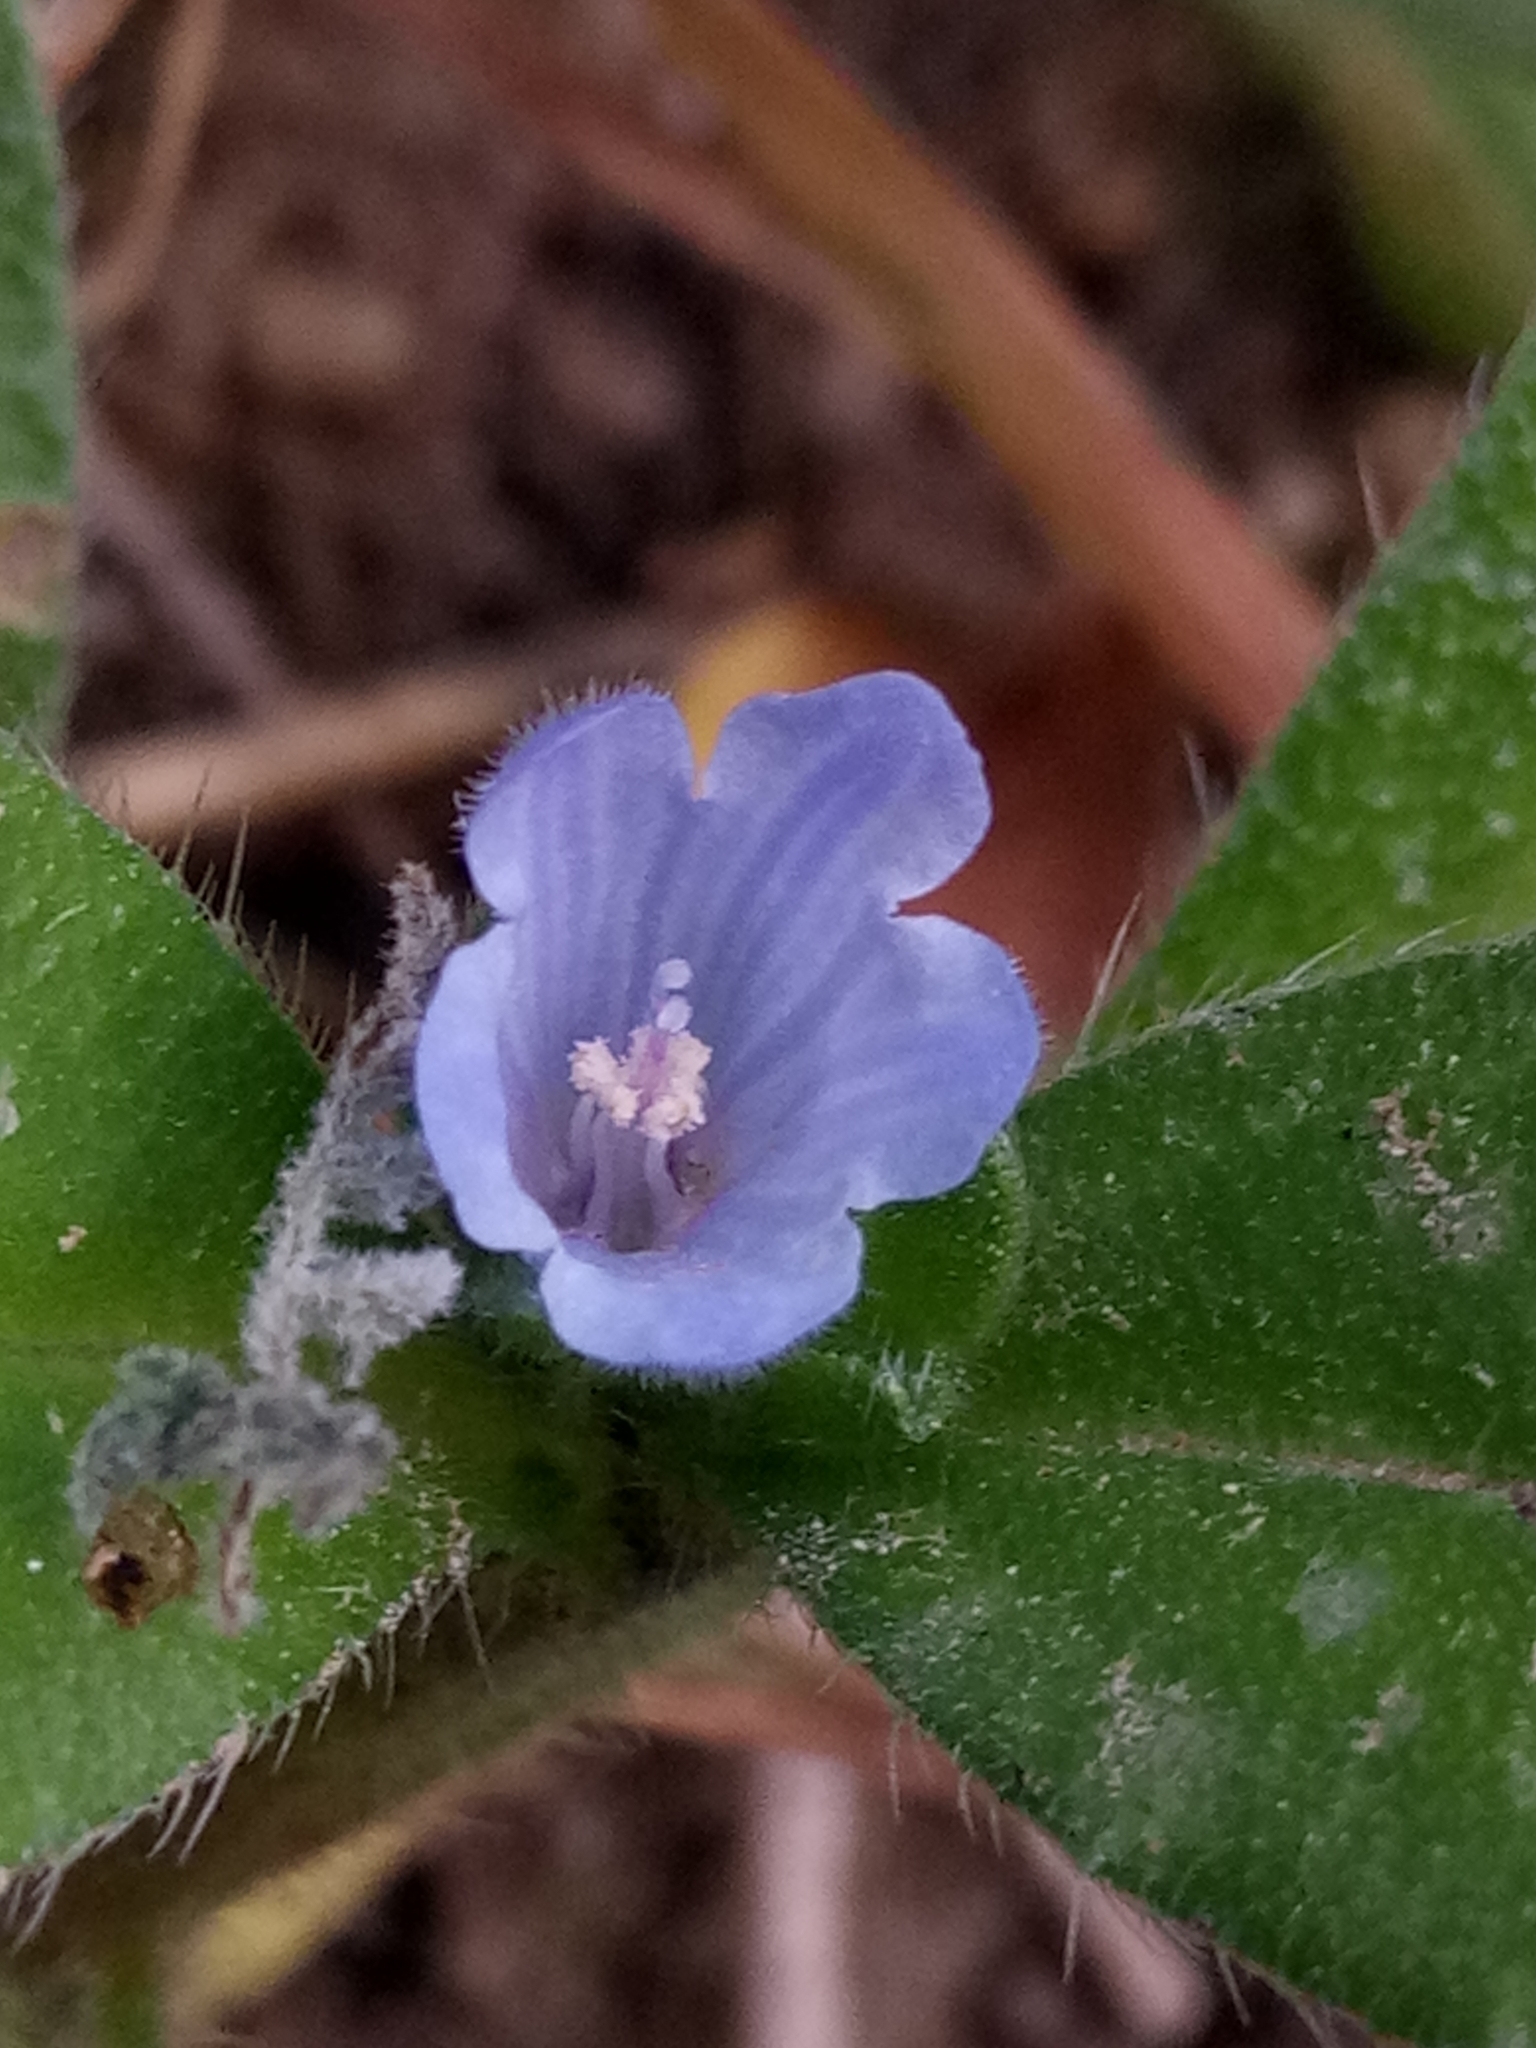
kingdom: Plantae
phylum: Tracheophyta
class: Magnoliopsida
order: Boraginales
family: Boraginaceae
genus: Echium
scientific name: Echium parviflorum
